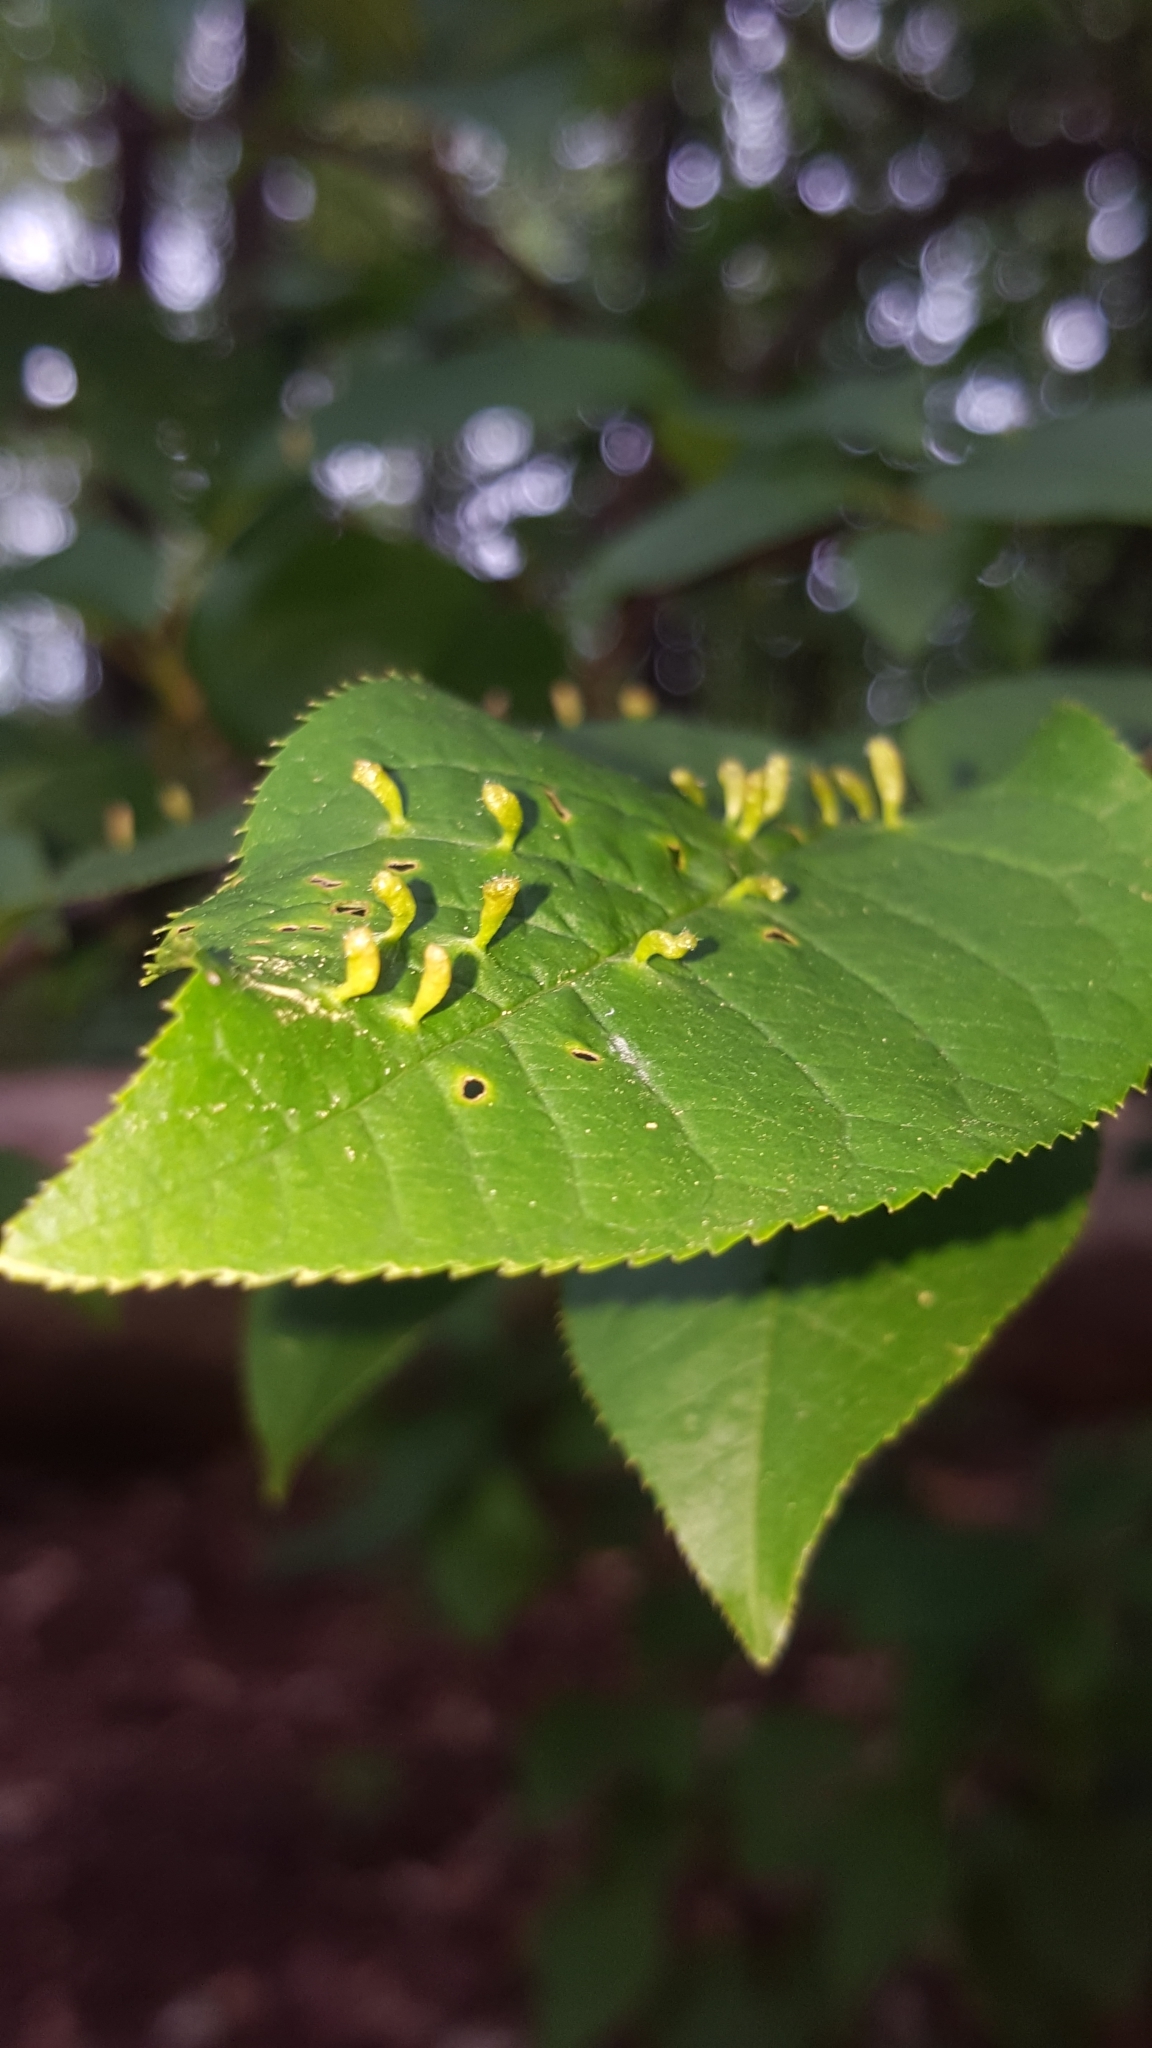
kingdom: Animalia
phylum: Arthropoda
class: Arachnida
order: Trombidiformes
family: Eriophyidae
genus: Phyllocoptes
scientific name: Phyllocoptes eupadi
